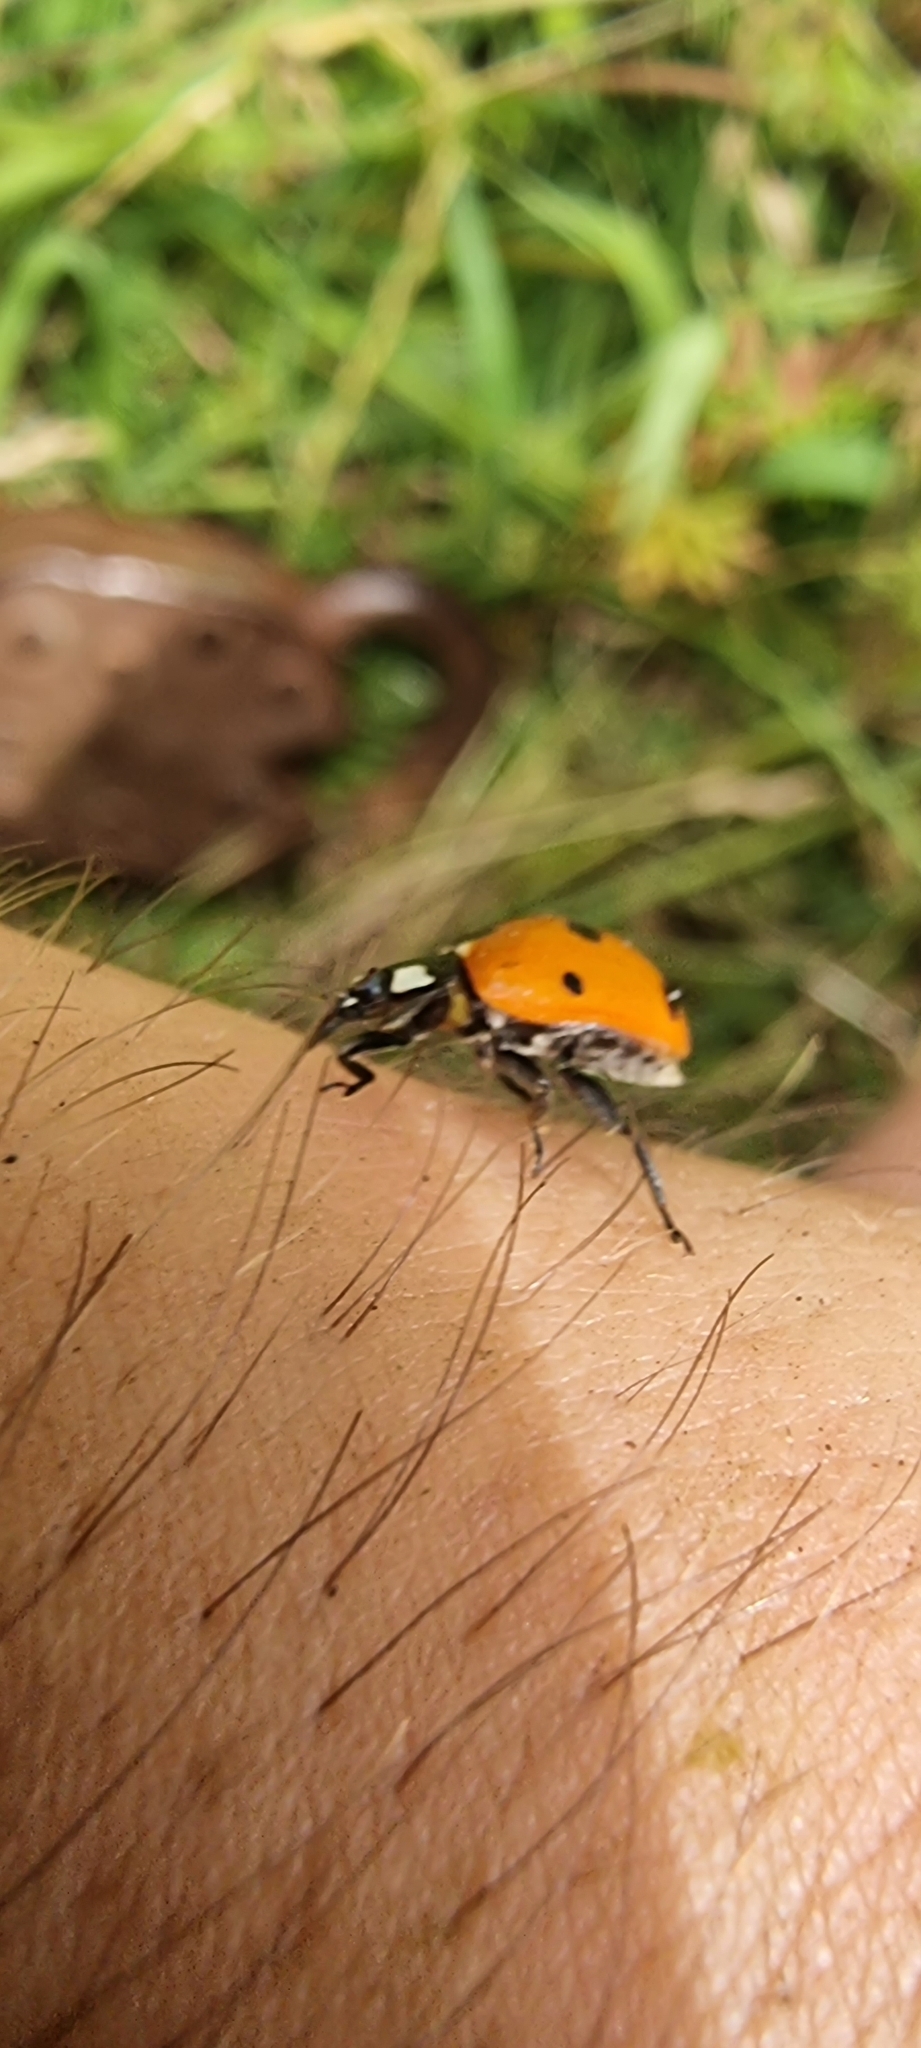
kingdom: Animalia
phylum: Arthropoda
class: Insecta
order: Coleoptera
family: Coccinellidae
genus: Coccinella
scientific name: Coccinella septempunctata
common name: Sevenspotted lady beetle
